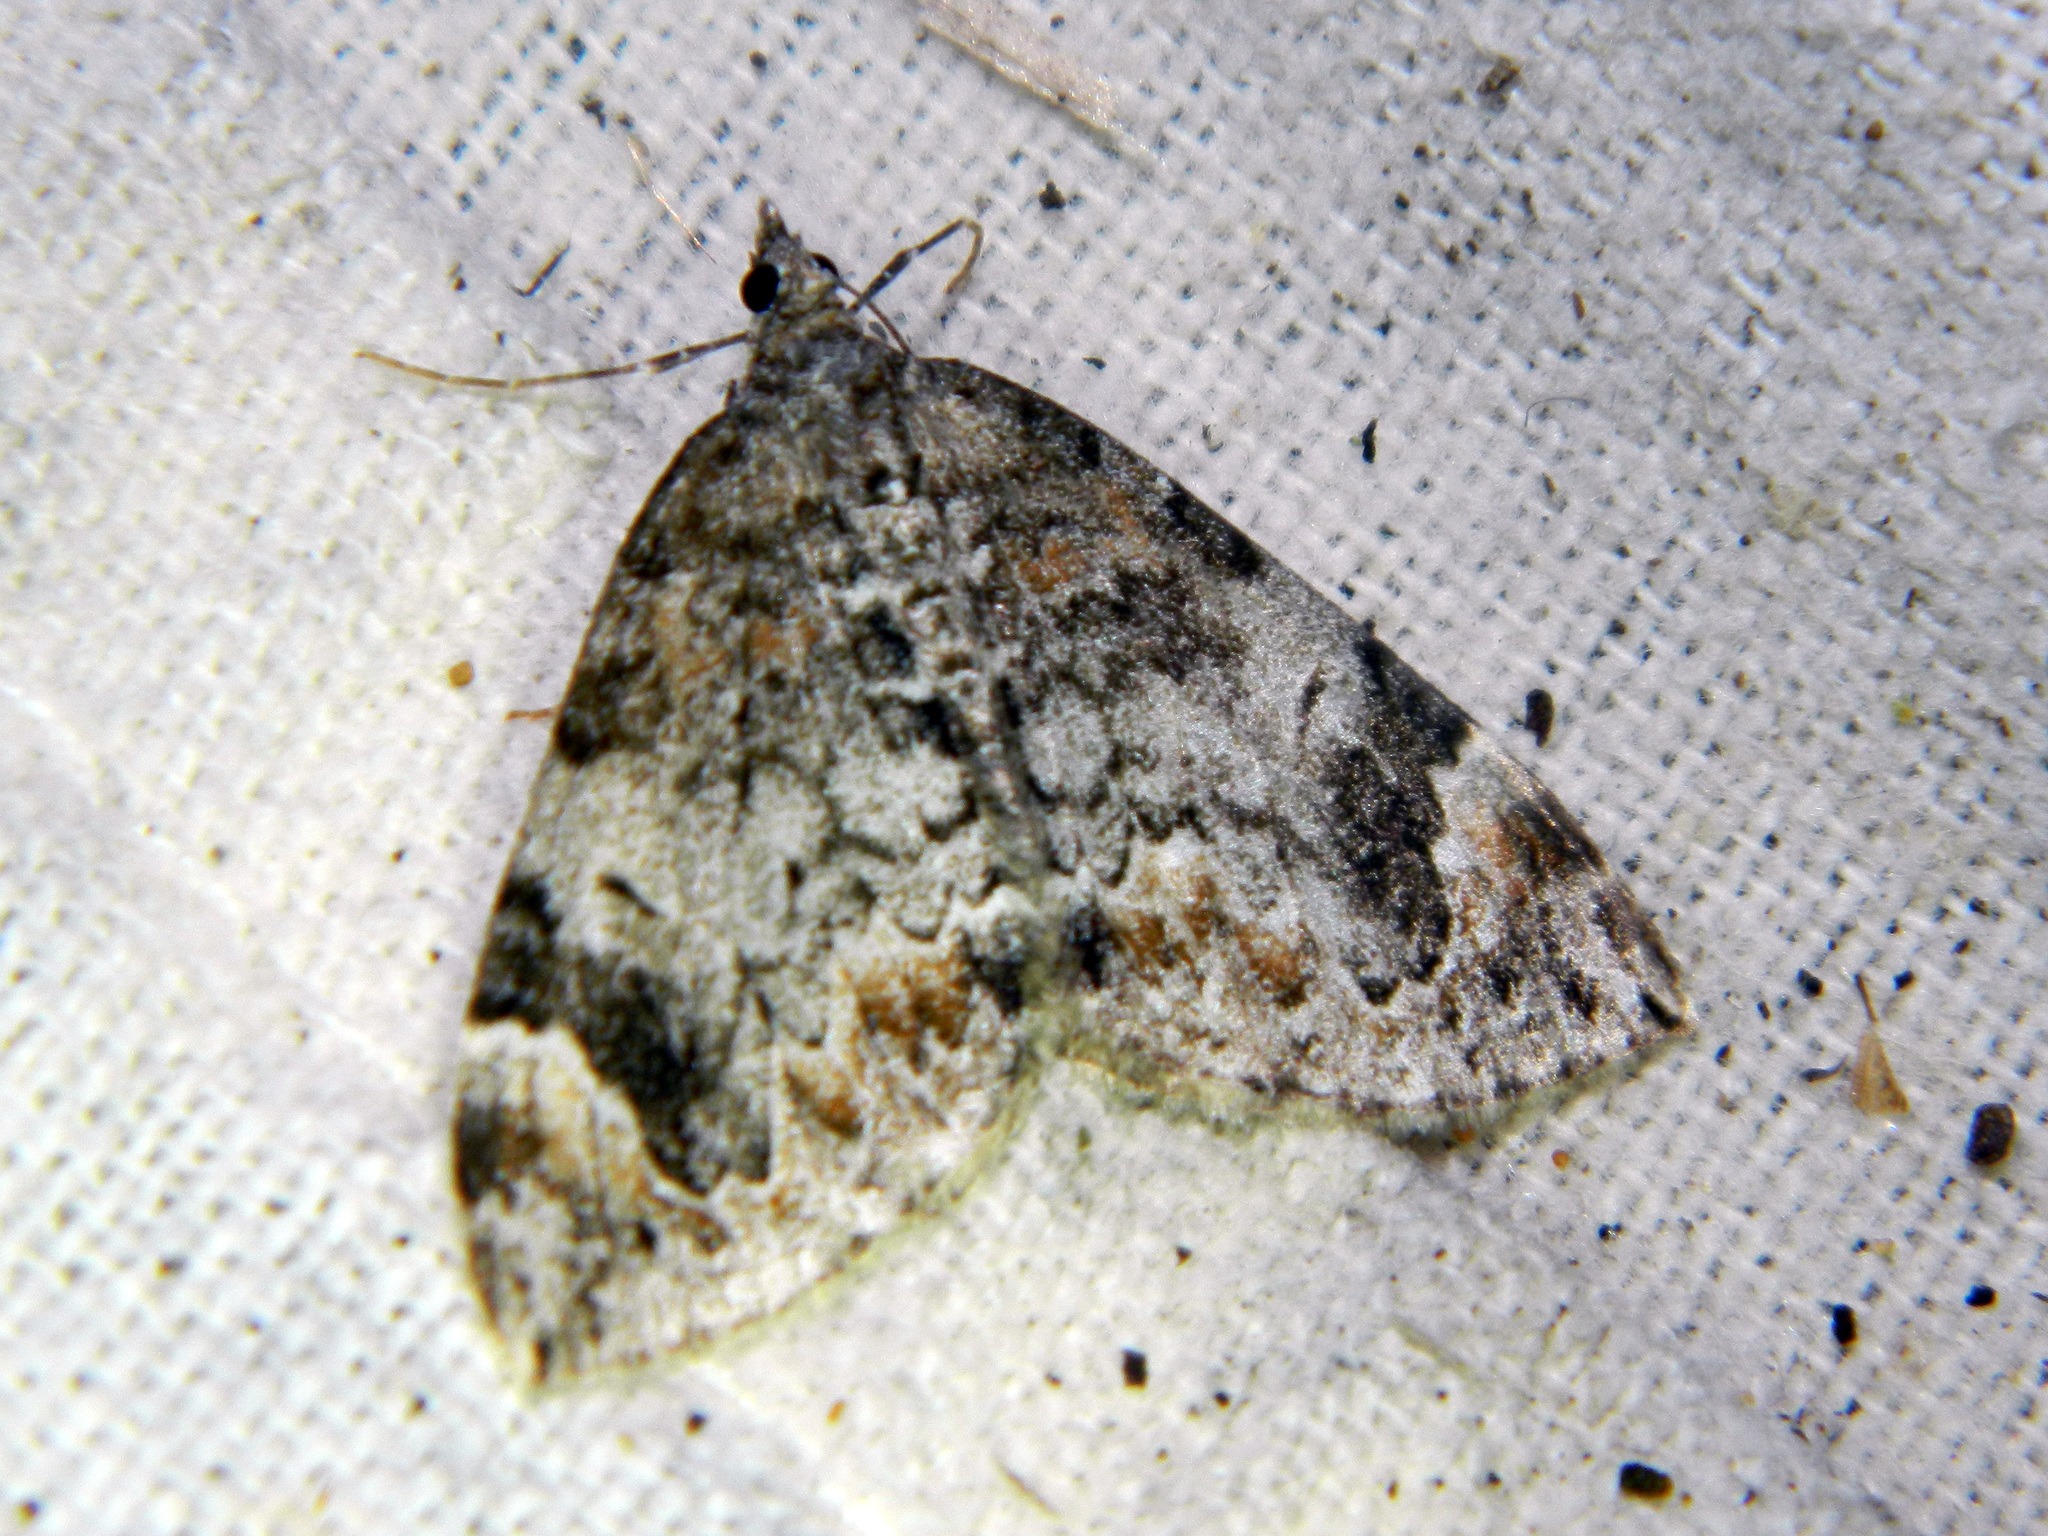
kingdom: Animalia
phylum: Arthropoda
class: Insecta
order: Lepidoptera
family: Geometridae
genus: Dysstroma
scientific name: Dysstroma citrata
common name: Dark marbled carpet
